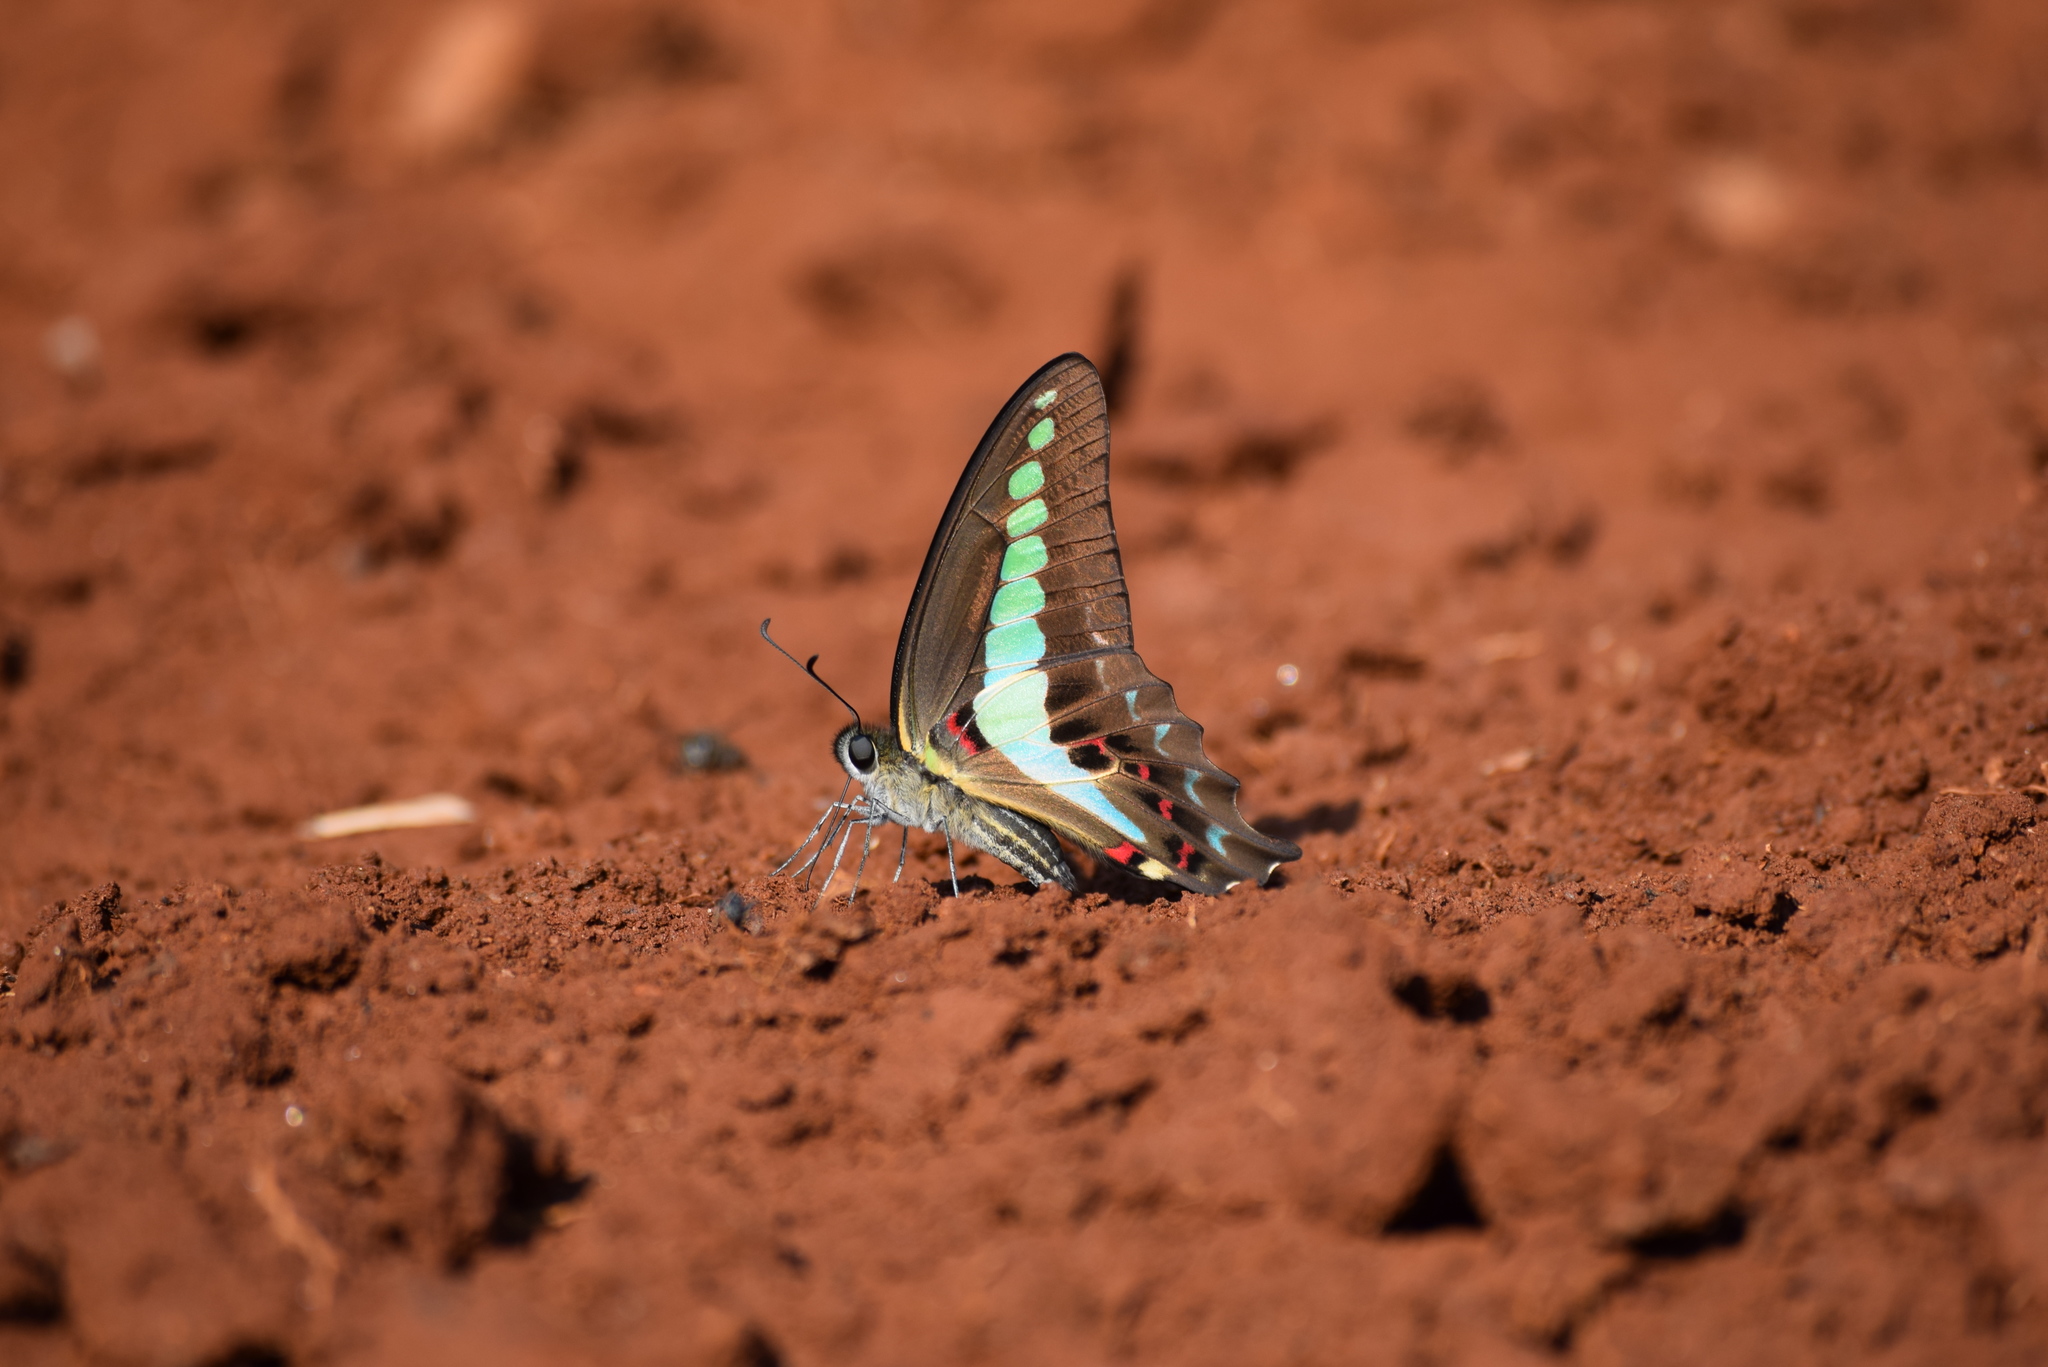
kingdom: Animalia
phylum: Arthropoda
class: Insecta
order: Lepidoptera
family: Papilionidae
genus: Graphium
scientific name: Graphium
